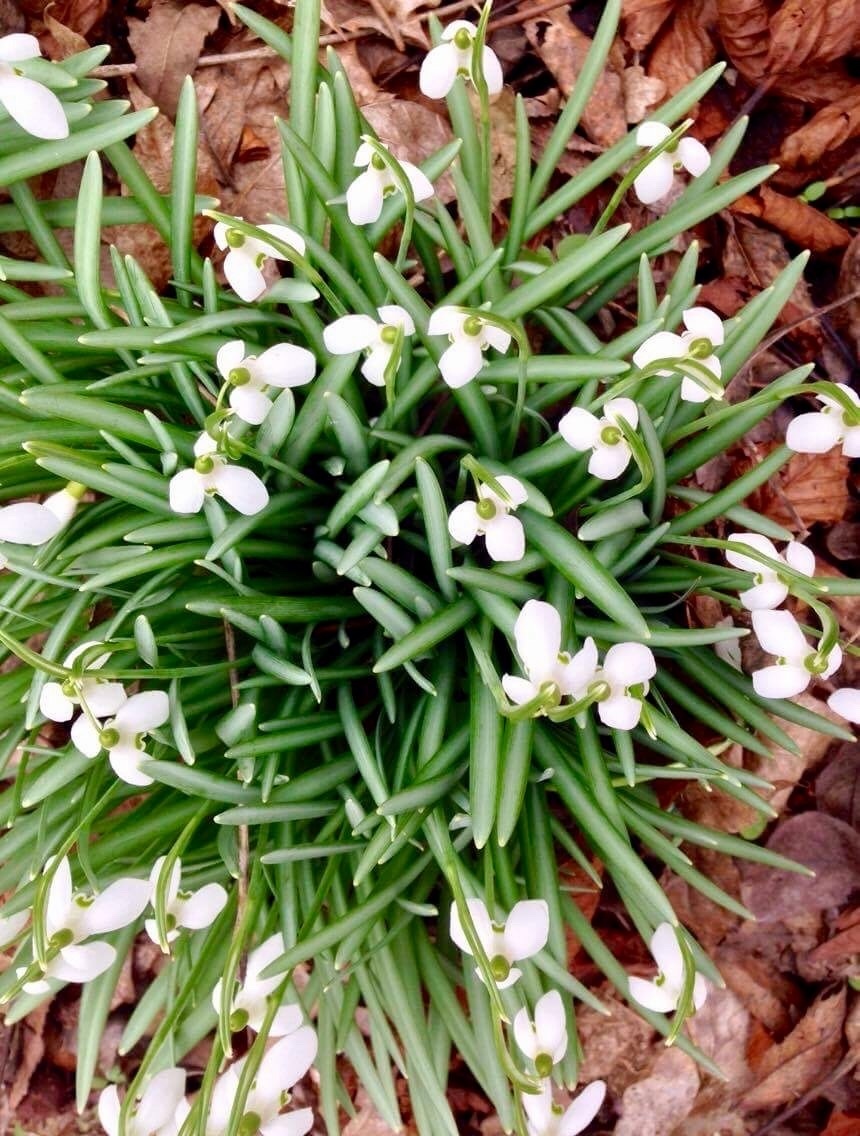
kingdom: Plantae
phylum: Tracheophyta
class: Liliopsida
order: Asparagales
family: Amaryllidaceae
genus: Galanthus
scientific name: Galanthus nivalis
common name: Snowdrop
